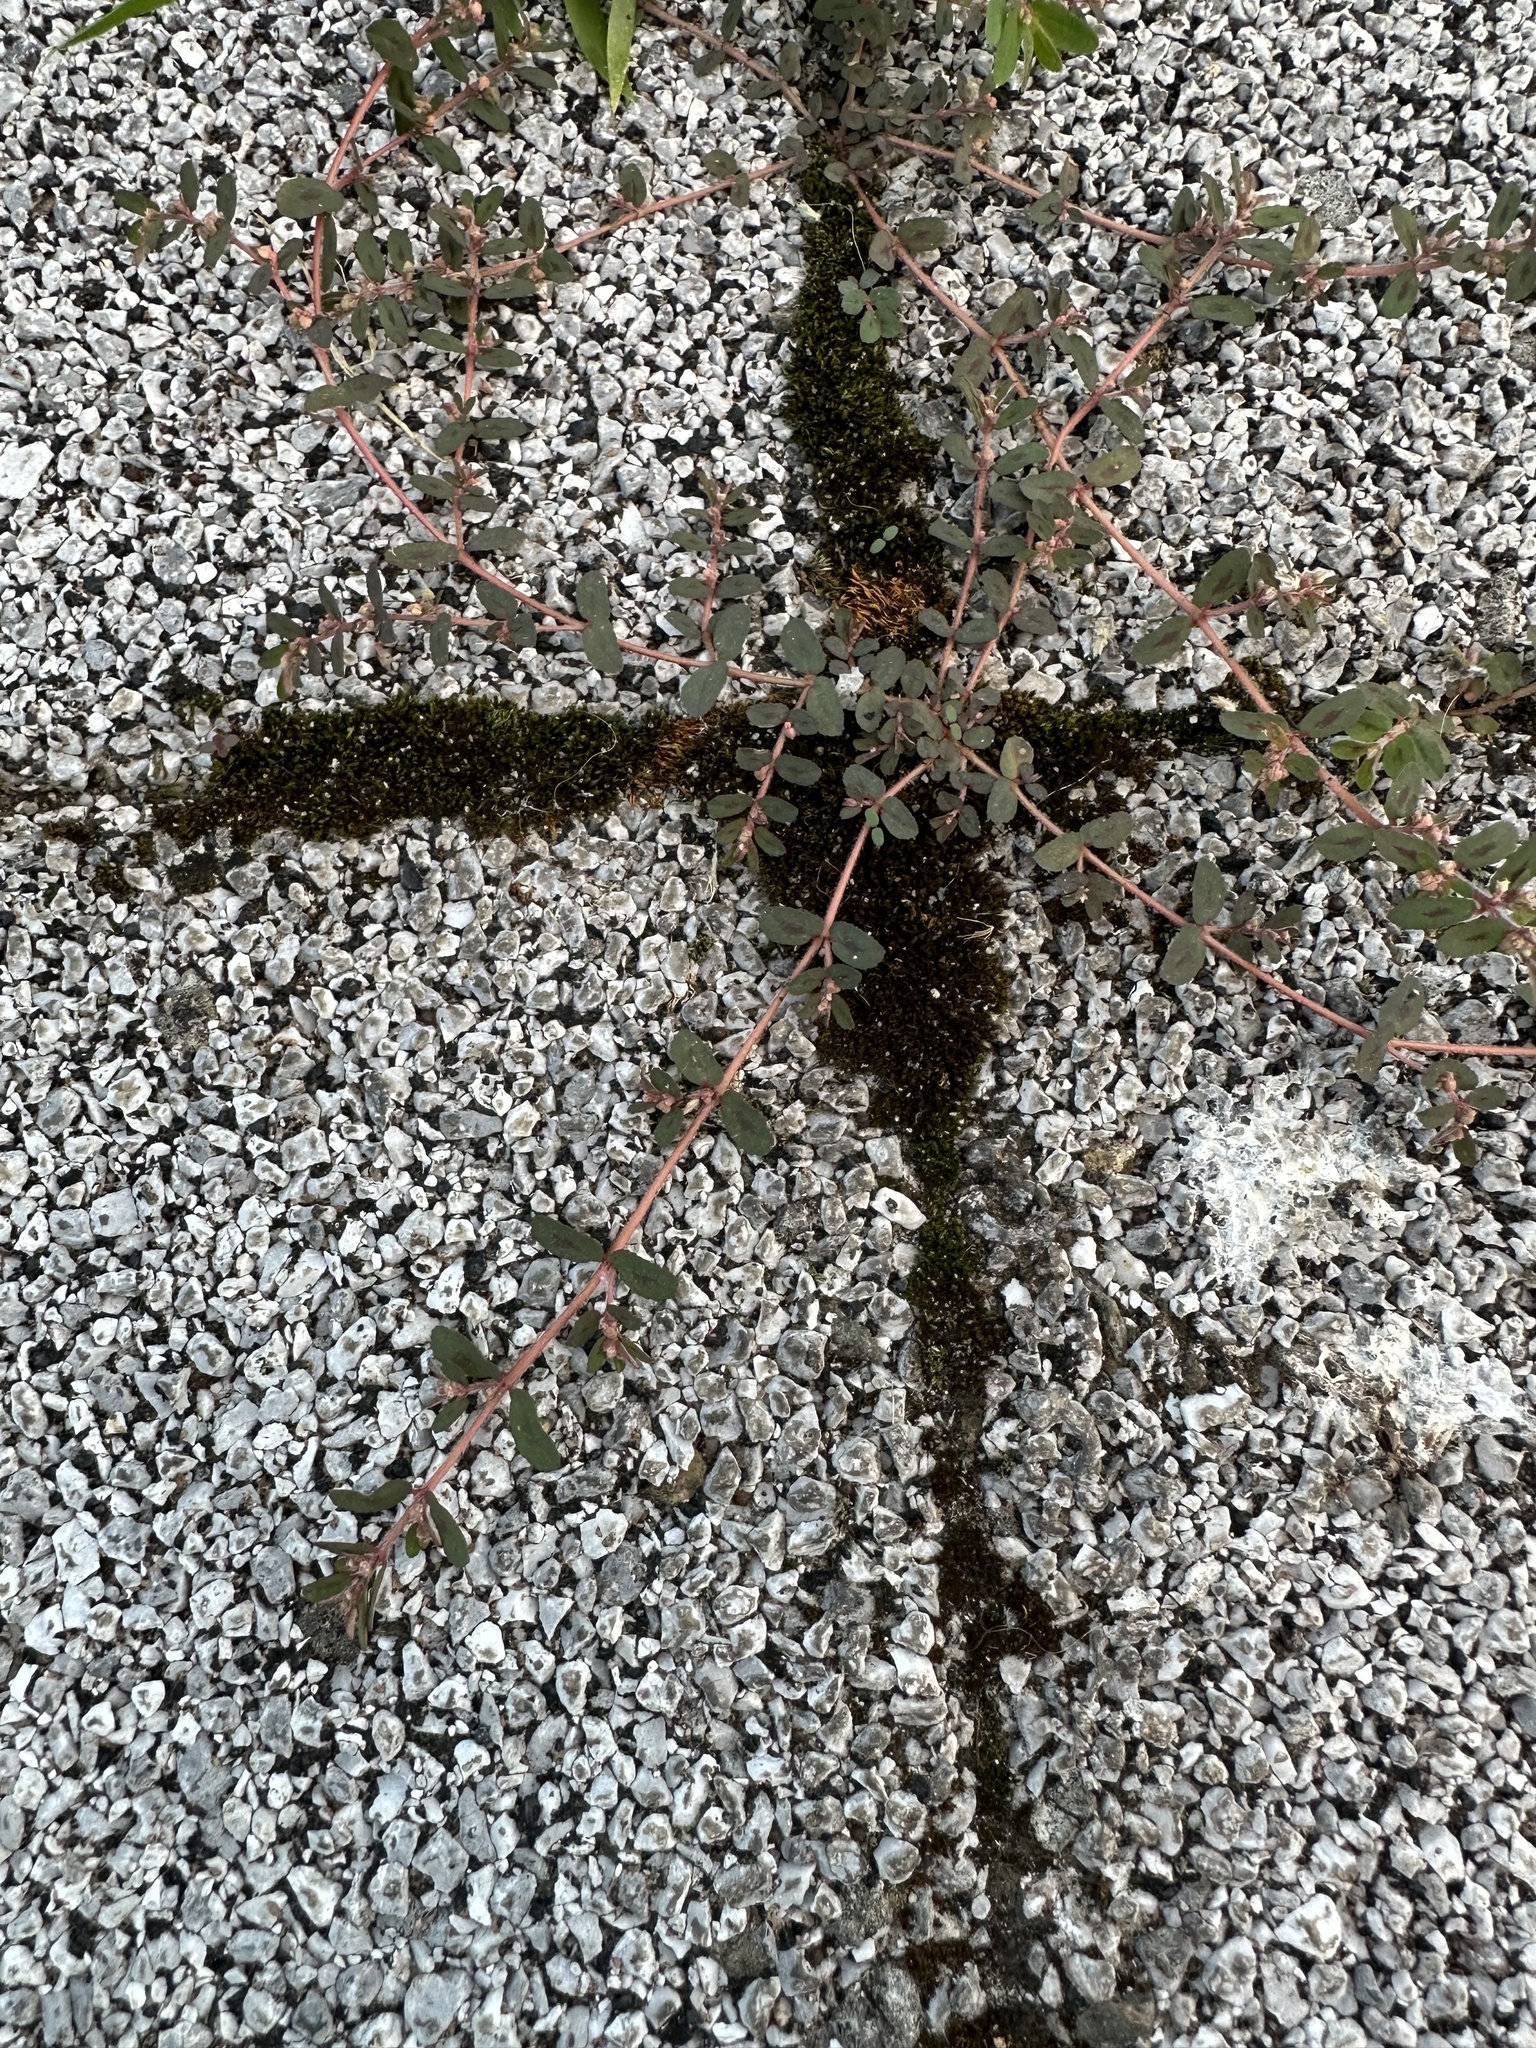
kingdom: Plantae
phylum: Tracheophyta
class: Magnoliopsida
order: Malpighiales
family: Euphorbiaceae
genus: Euphorbia
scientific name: Euphorbia maculata
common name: Spotted spurge
